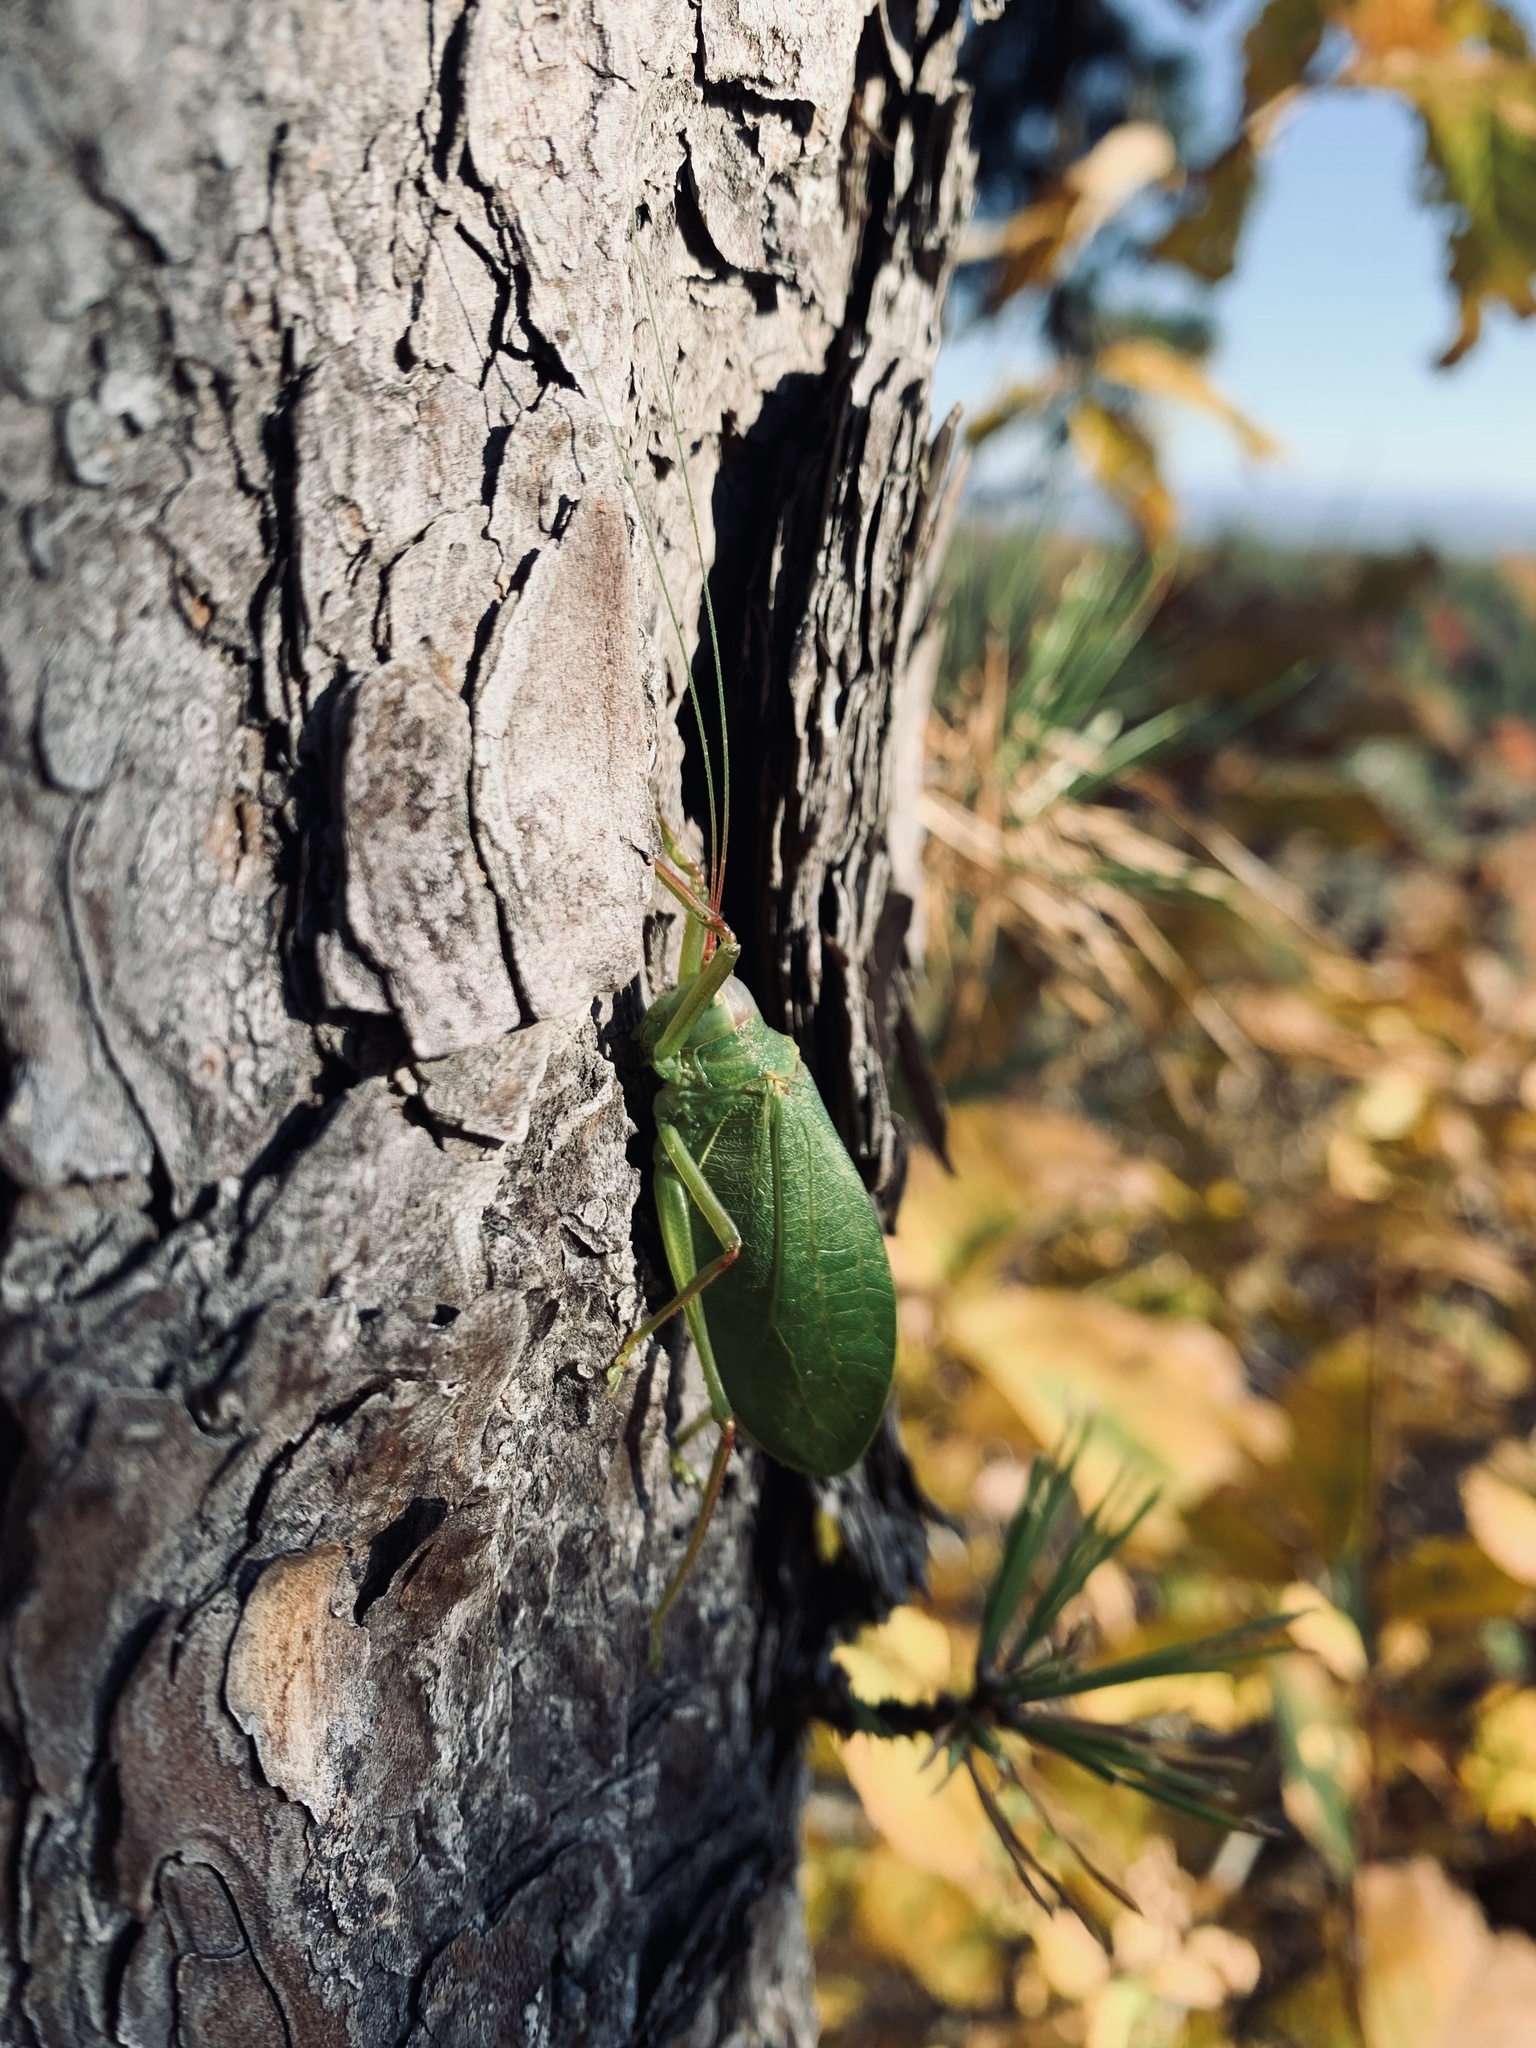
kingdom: Animalia
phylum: Arthropoda
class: Insecta
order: Orthoptera
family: Tettigoniidae
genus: Pterophylla
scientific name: Pterophylla camellifolia
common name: Common true katydid
